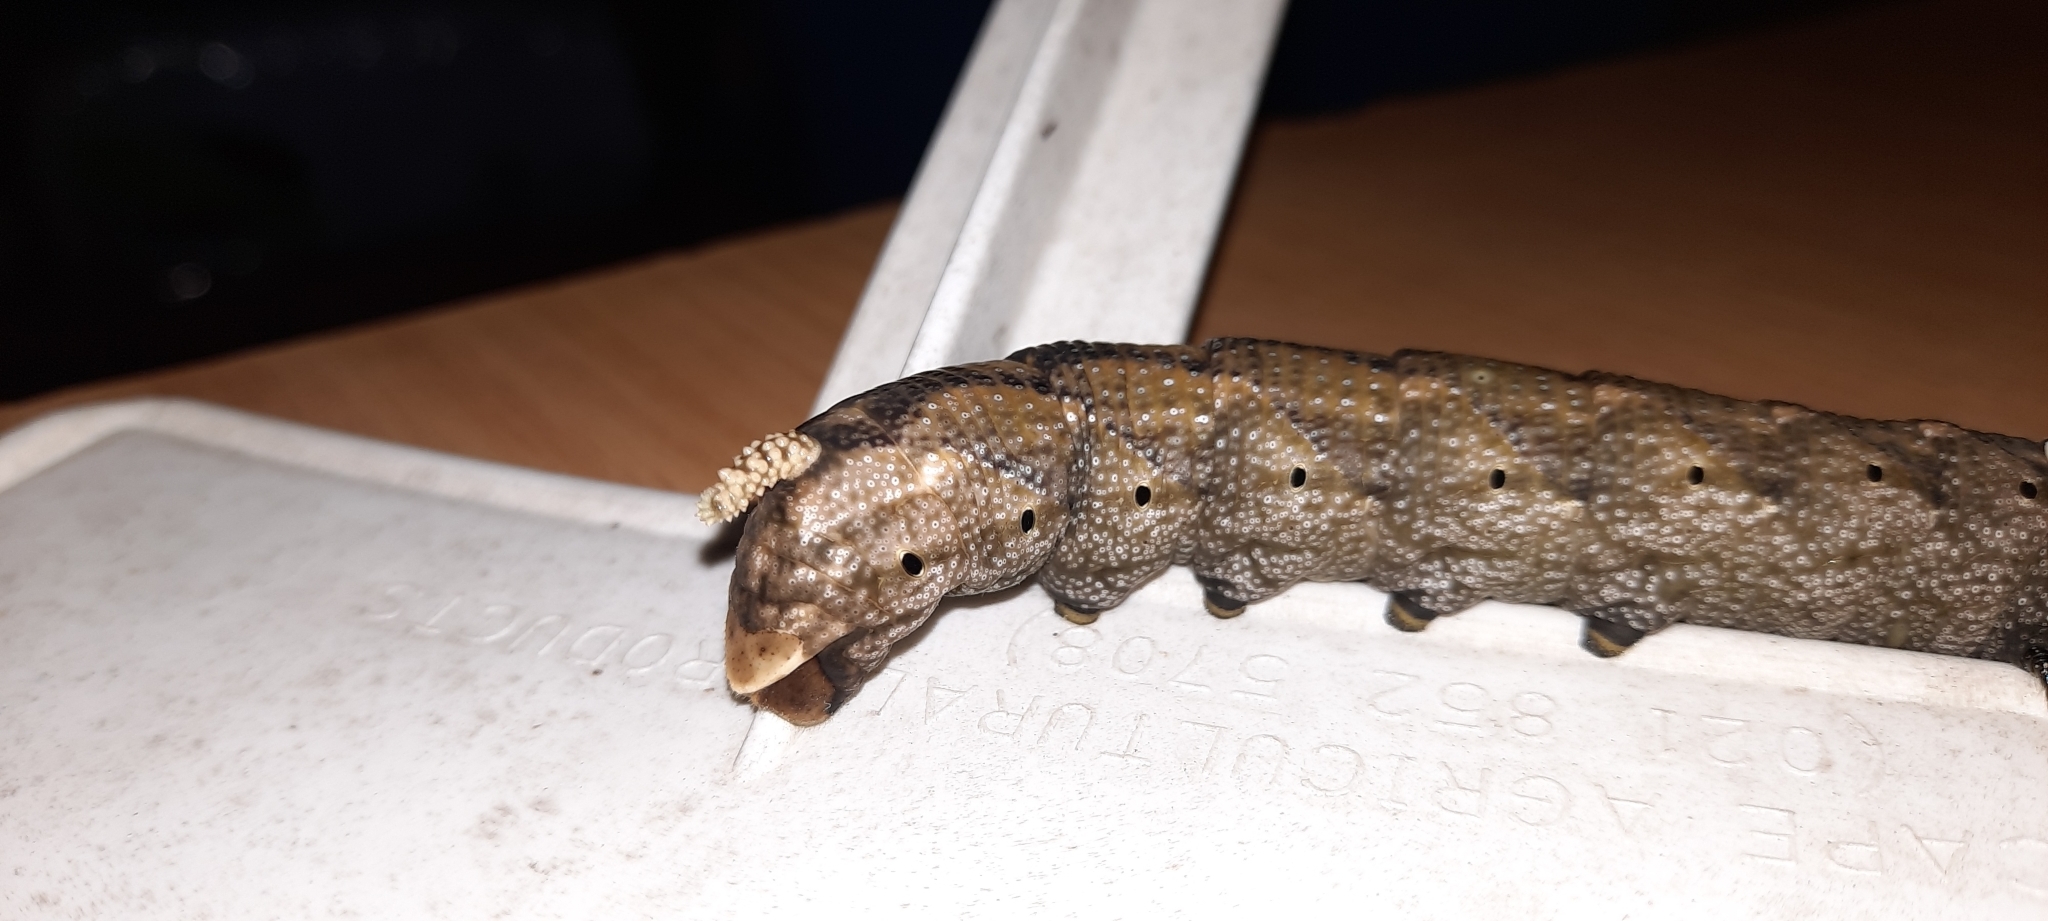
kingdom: Animalia
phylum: Arthropoda
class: Insecta
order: Lepidoptera
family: Sphingidae
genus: Acherontia
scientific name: Acherontia atropos
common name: Death's-head hawk moth
